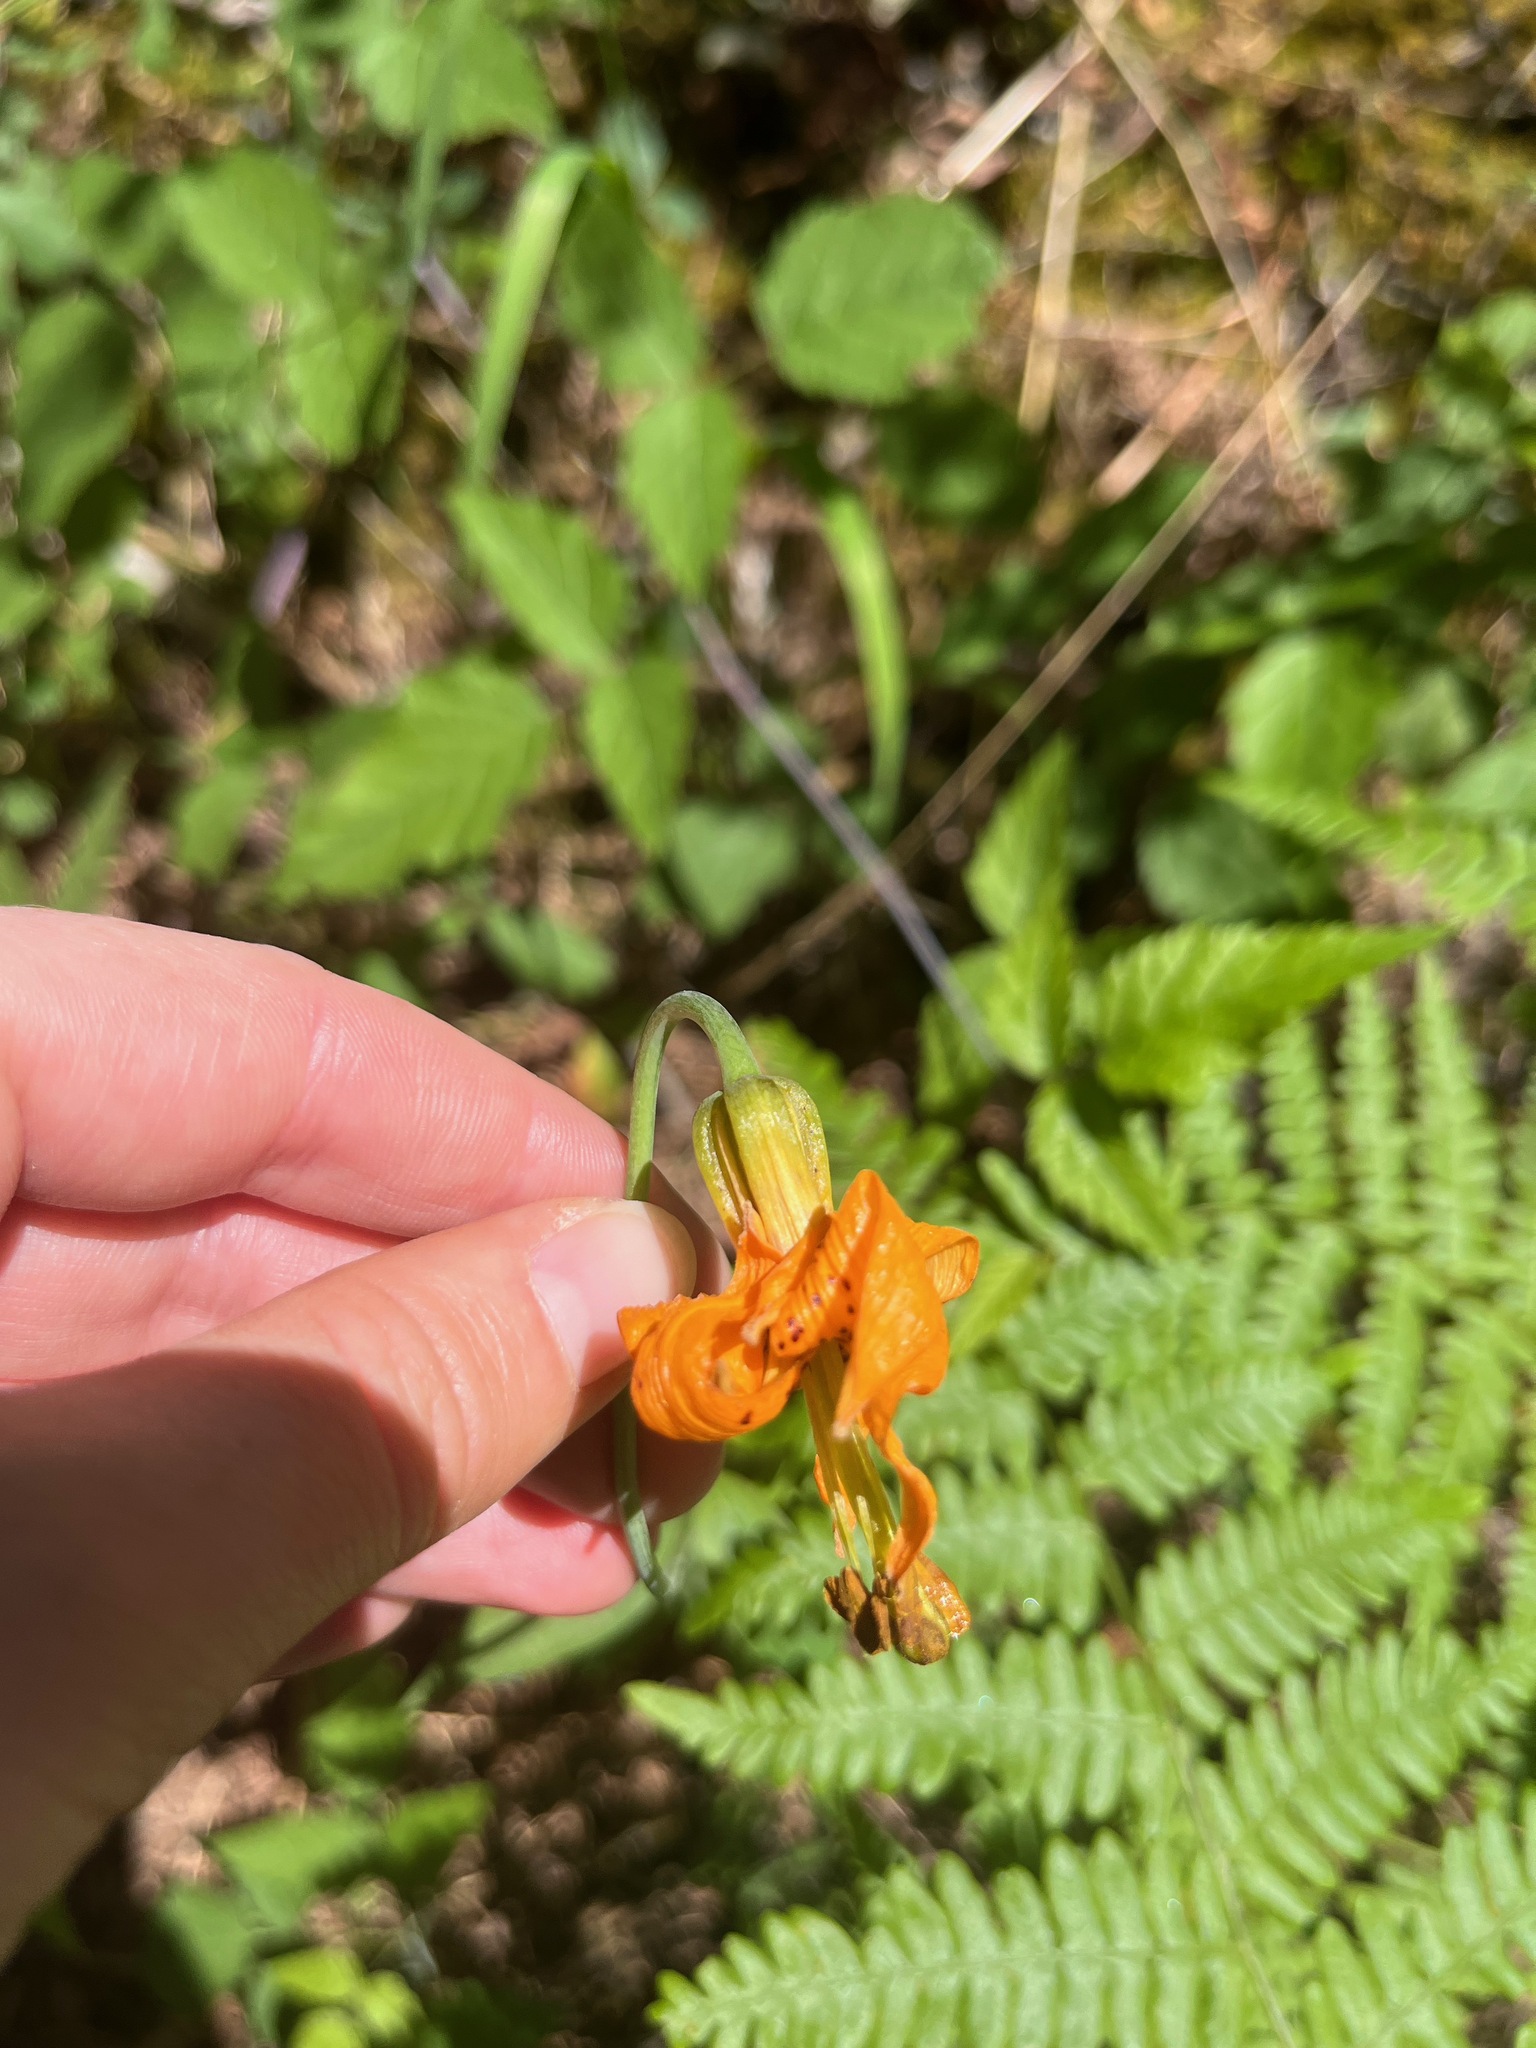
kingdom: Plantae
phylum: Tracheophyta
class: Liliopsida
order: Liliales
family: Liliaceae
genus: Lilium
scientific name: Lilium columbianum
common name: Columbia lily
